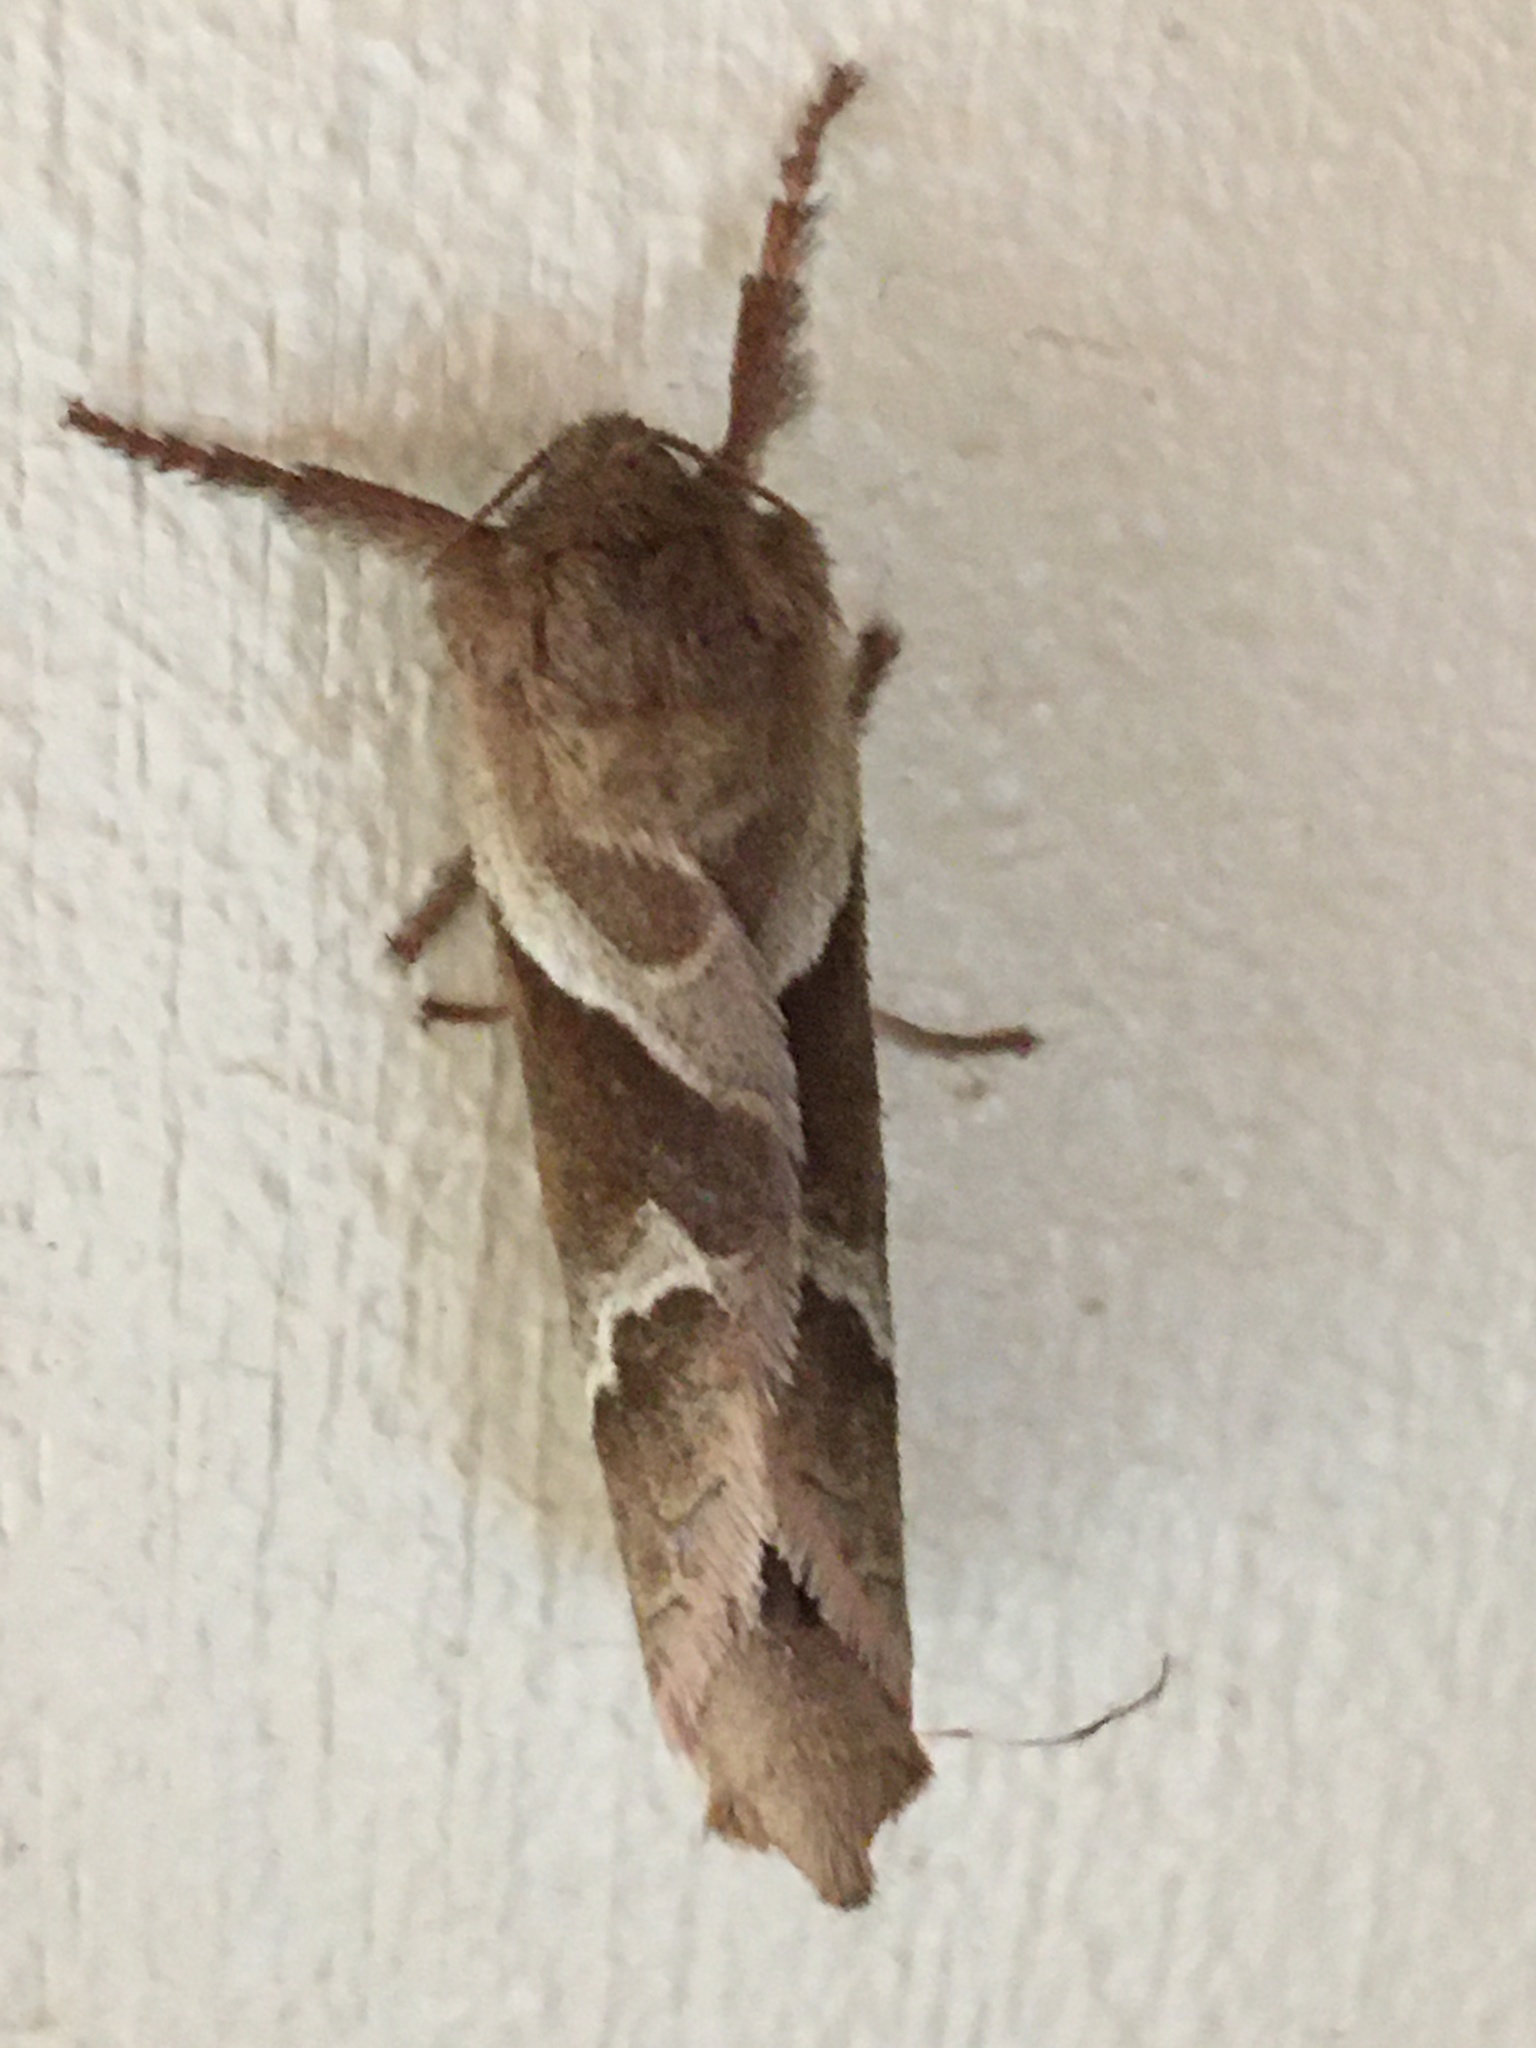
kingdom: Animalia
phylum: Arthropoda
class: Insecta
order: Lepidoptera
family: Hepialidae
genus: Triodia
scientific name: Triodia sylvina
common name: Orange swift
